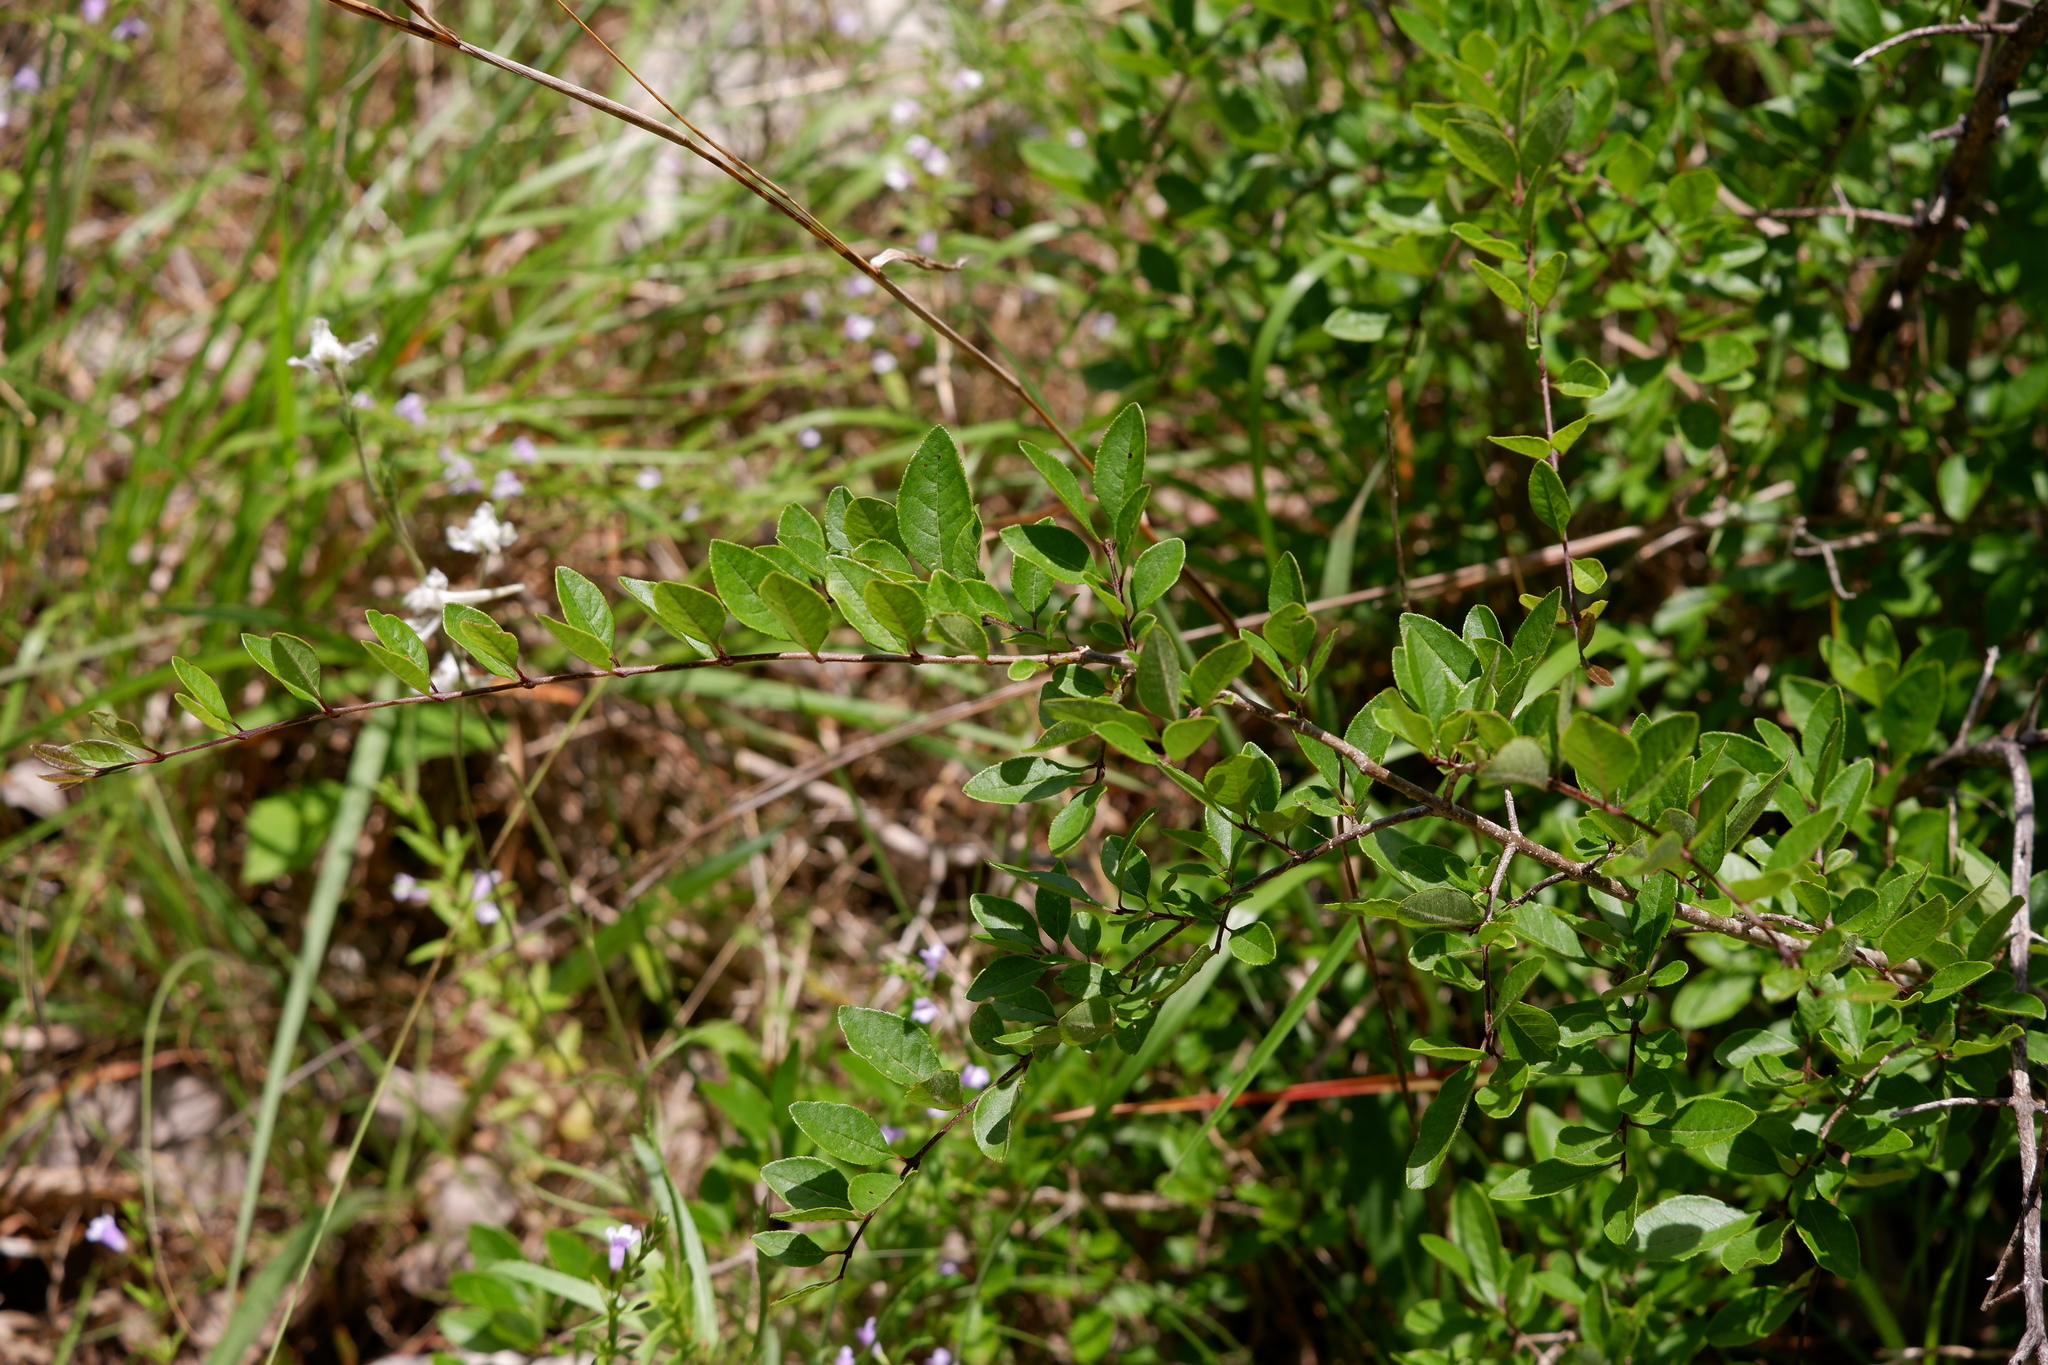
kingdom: Plantae
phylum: Tracheophyta
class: Magnoliopsida
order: Lamiales
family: Oleaceae
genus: Forestiera
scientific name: Forestiera ligustrina
